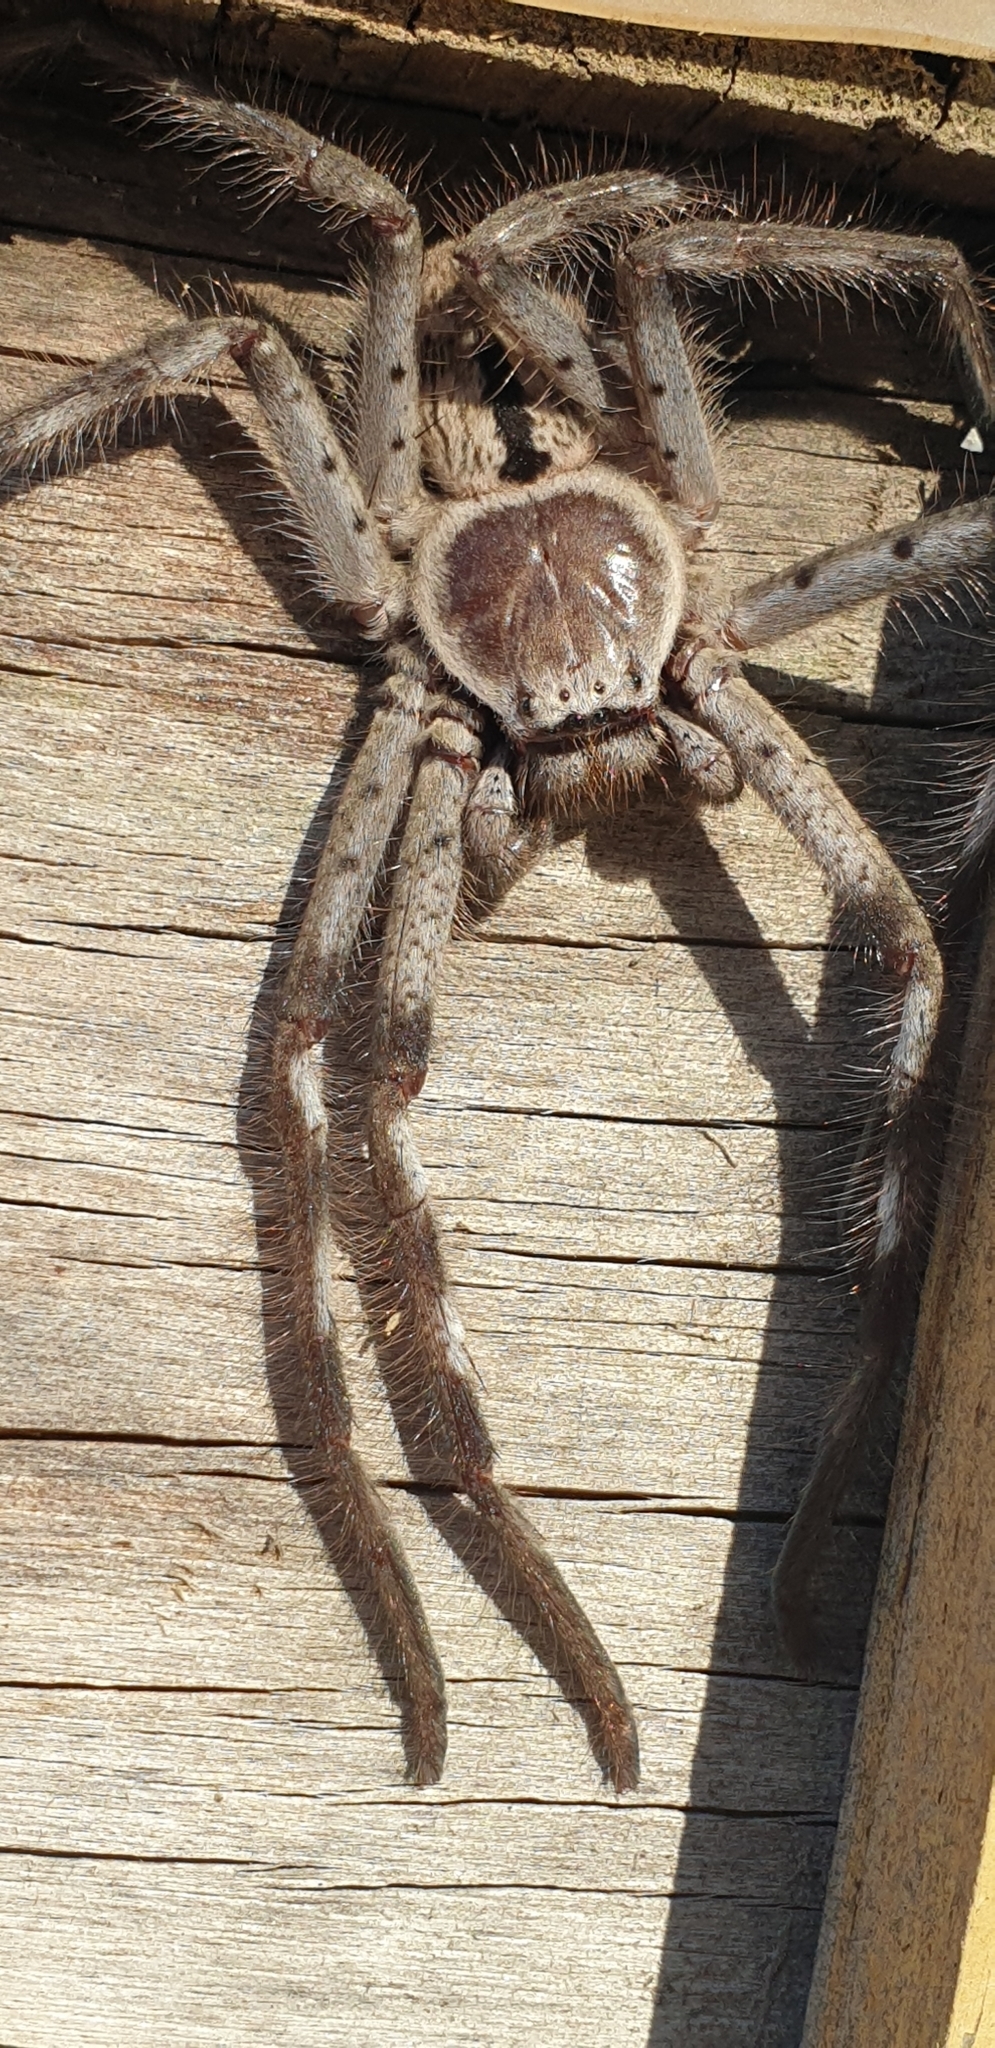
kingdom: Animalia
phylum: Arthropoda
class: Arachnida
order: Araneae
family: Sparassidae
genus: Holconia
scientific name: Holconia immanis
